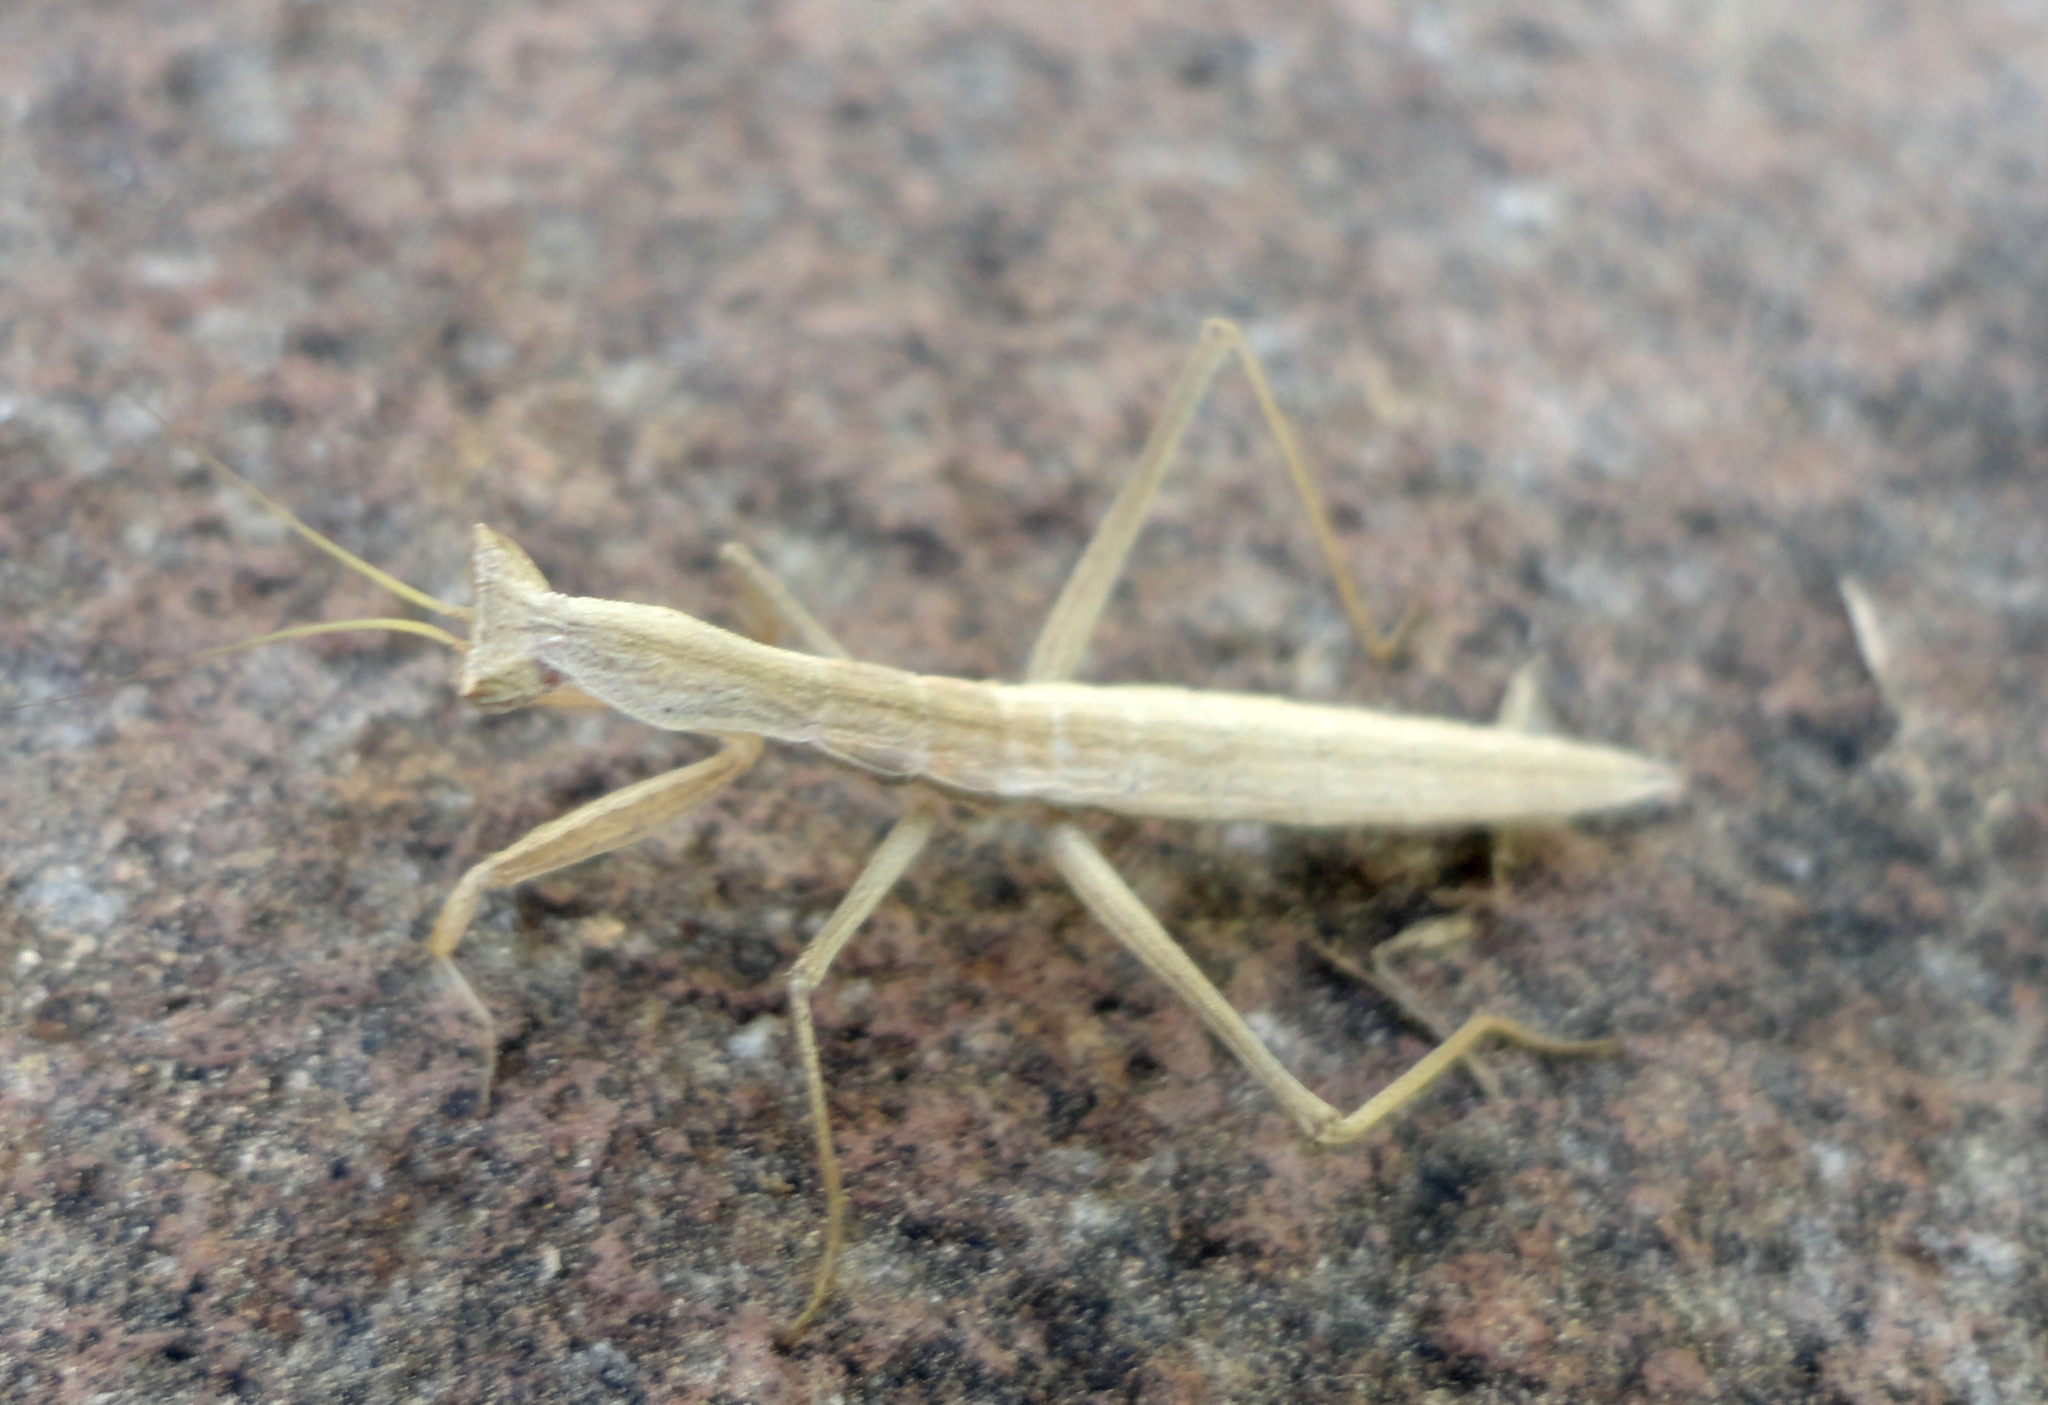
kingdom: Animalia
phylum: Arthropoda
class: Insecta
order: Mantodea
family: Amelidae
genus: Yersinia
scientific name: Yersinia mexicana
